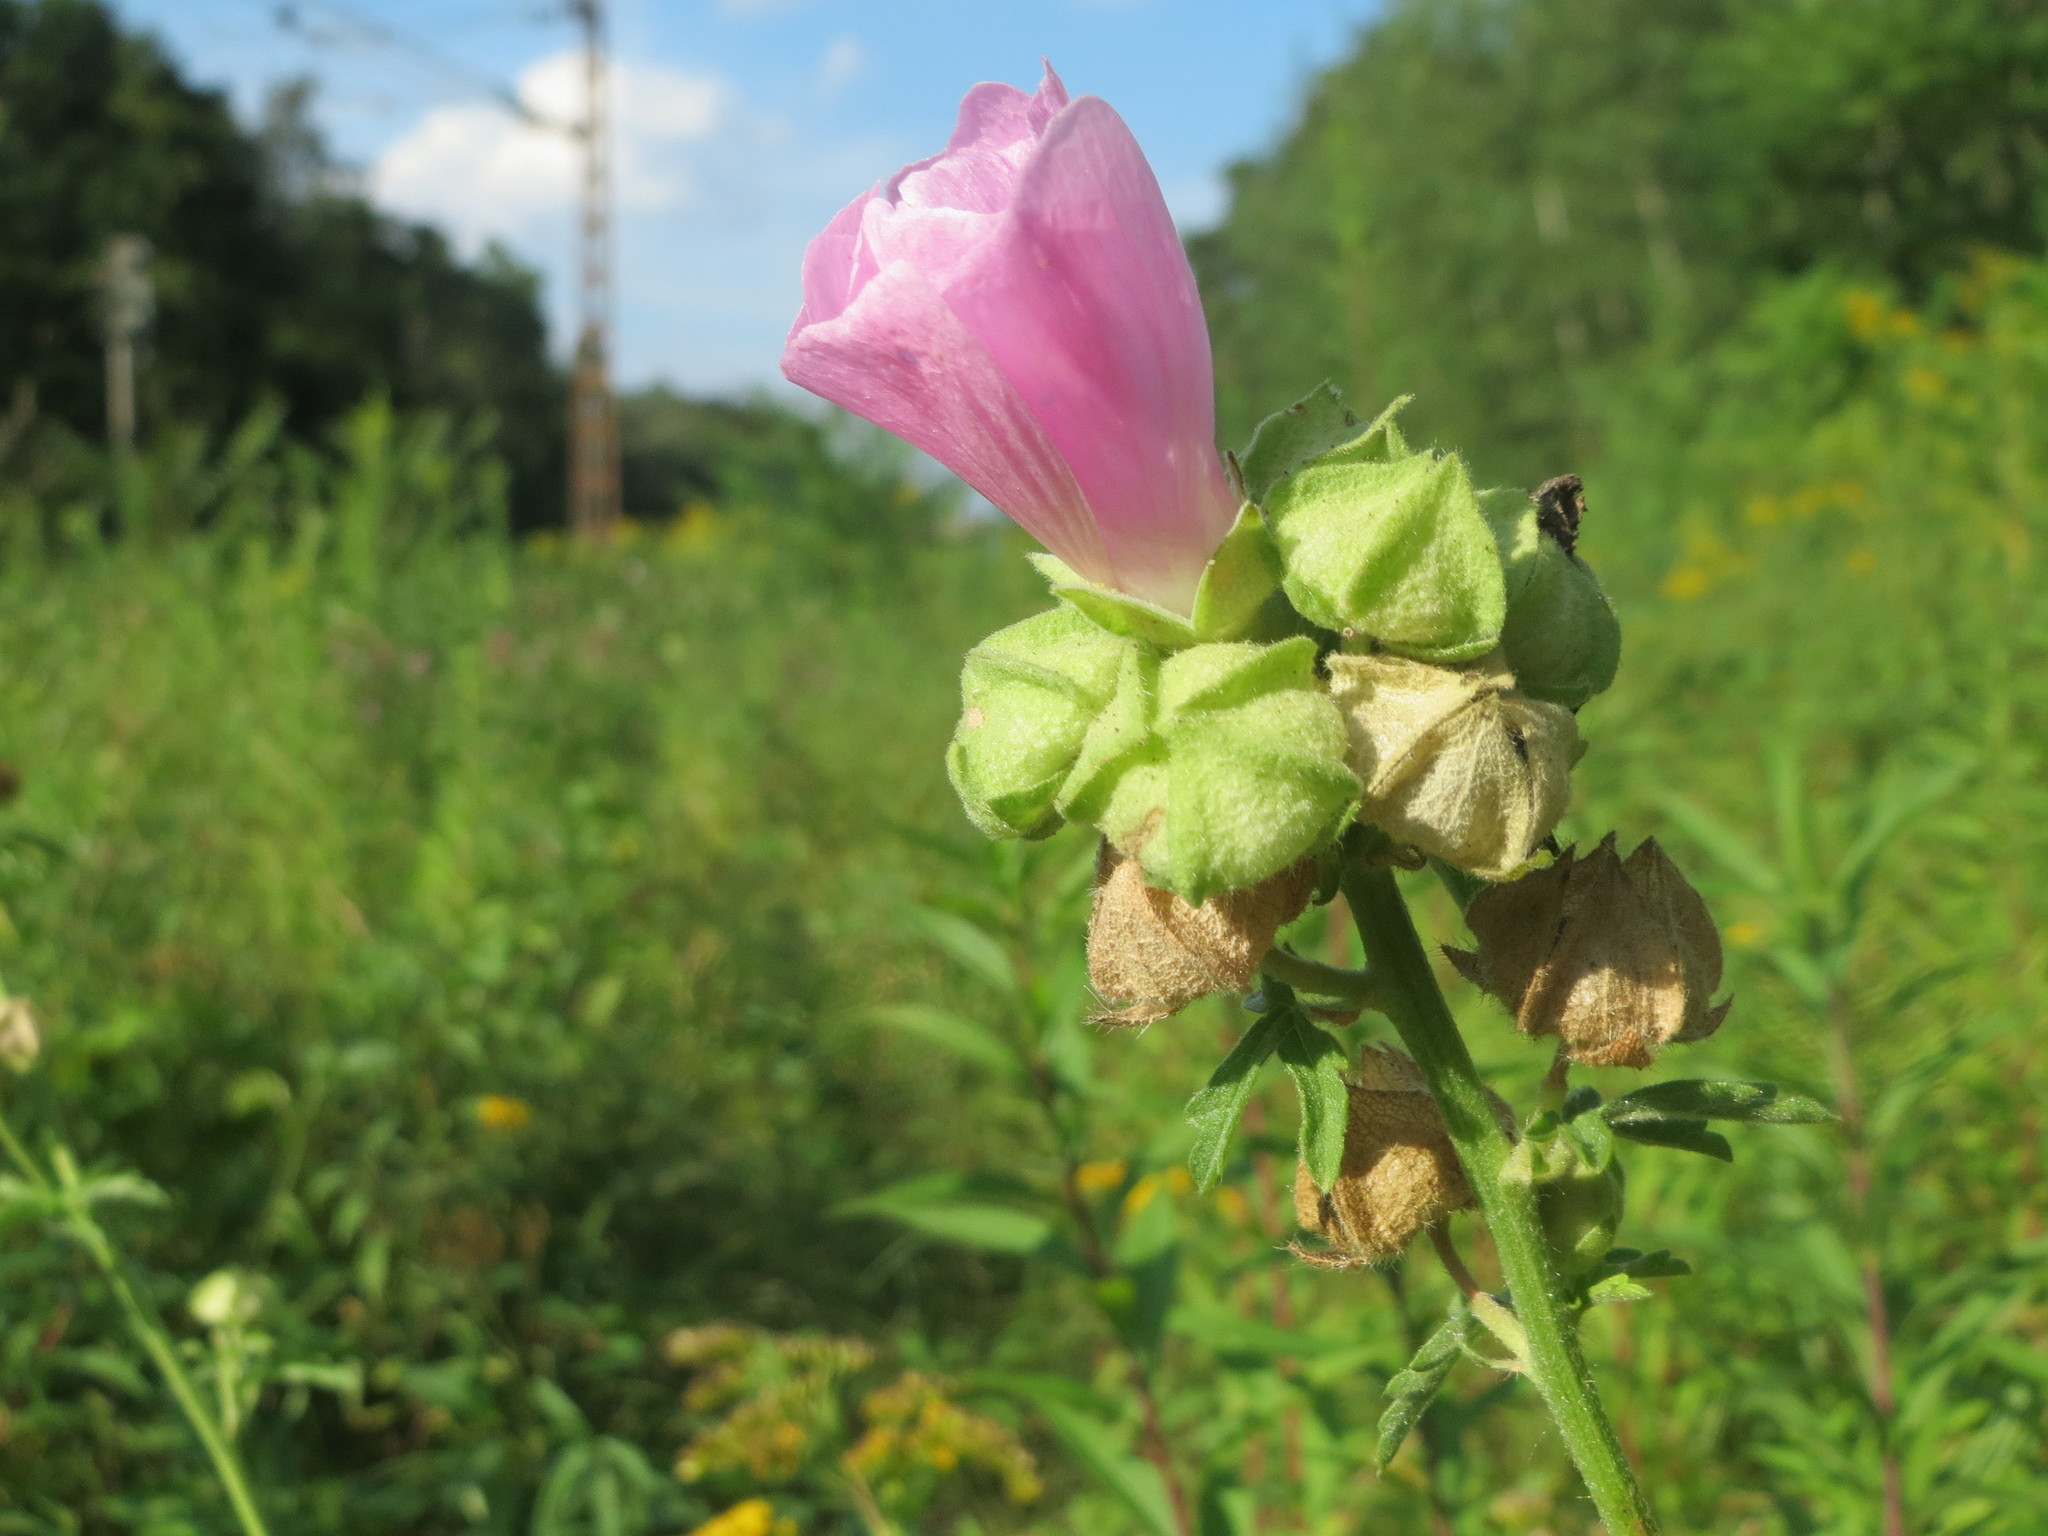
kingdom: Plantae
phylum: Tracheophyta
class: Magnoliopsida
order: Malvales
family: Malvaceae
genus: Malva
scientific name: Malva alcea
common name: Greater musk-mallow
